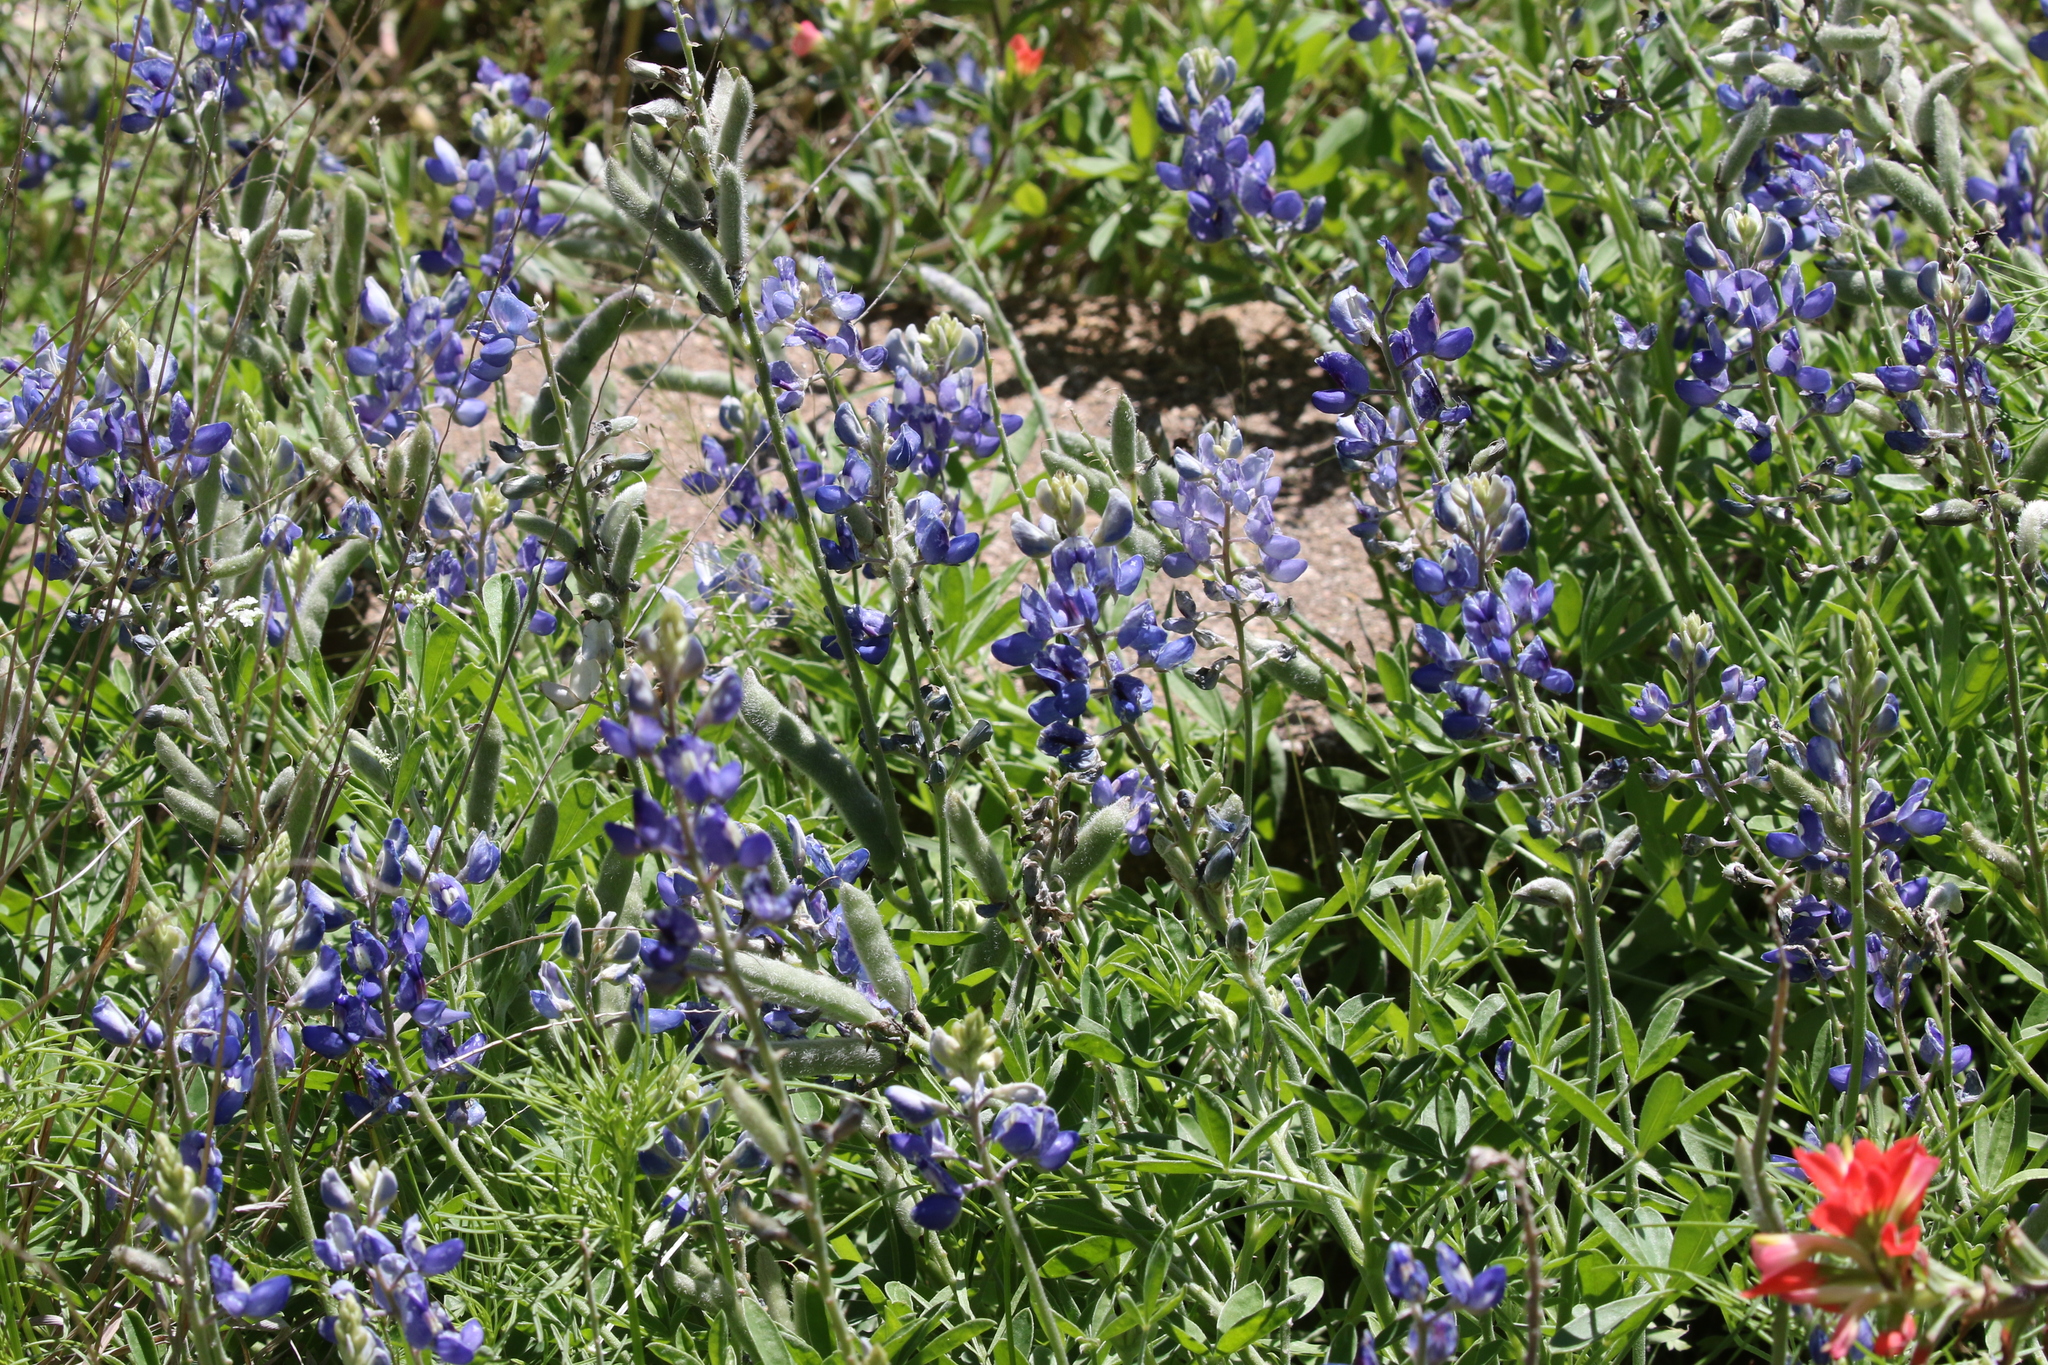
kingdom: Plantae
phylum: Tracheophyta
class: Magnoliopsida
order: Fabales
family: Fabaceae
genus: Lupinus
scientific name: Lupinus texensis
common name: Texas bluebonnet
